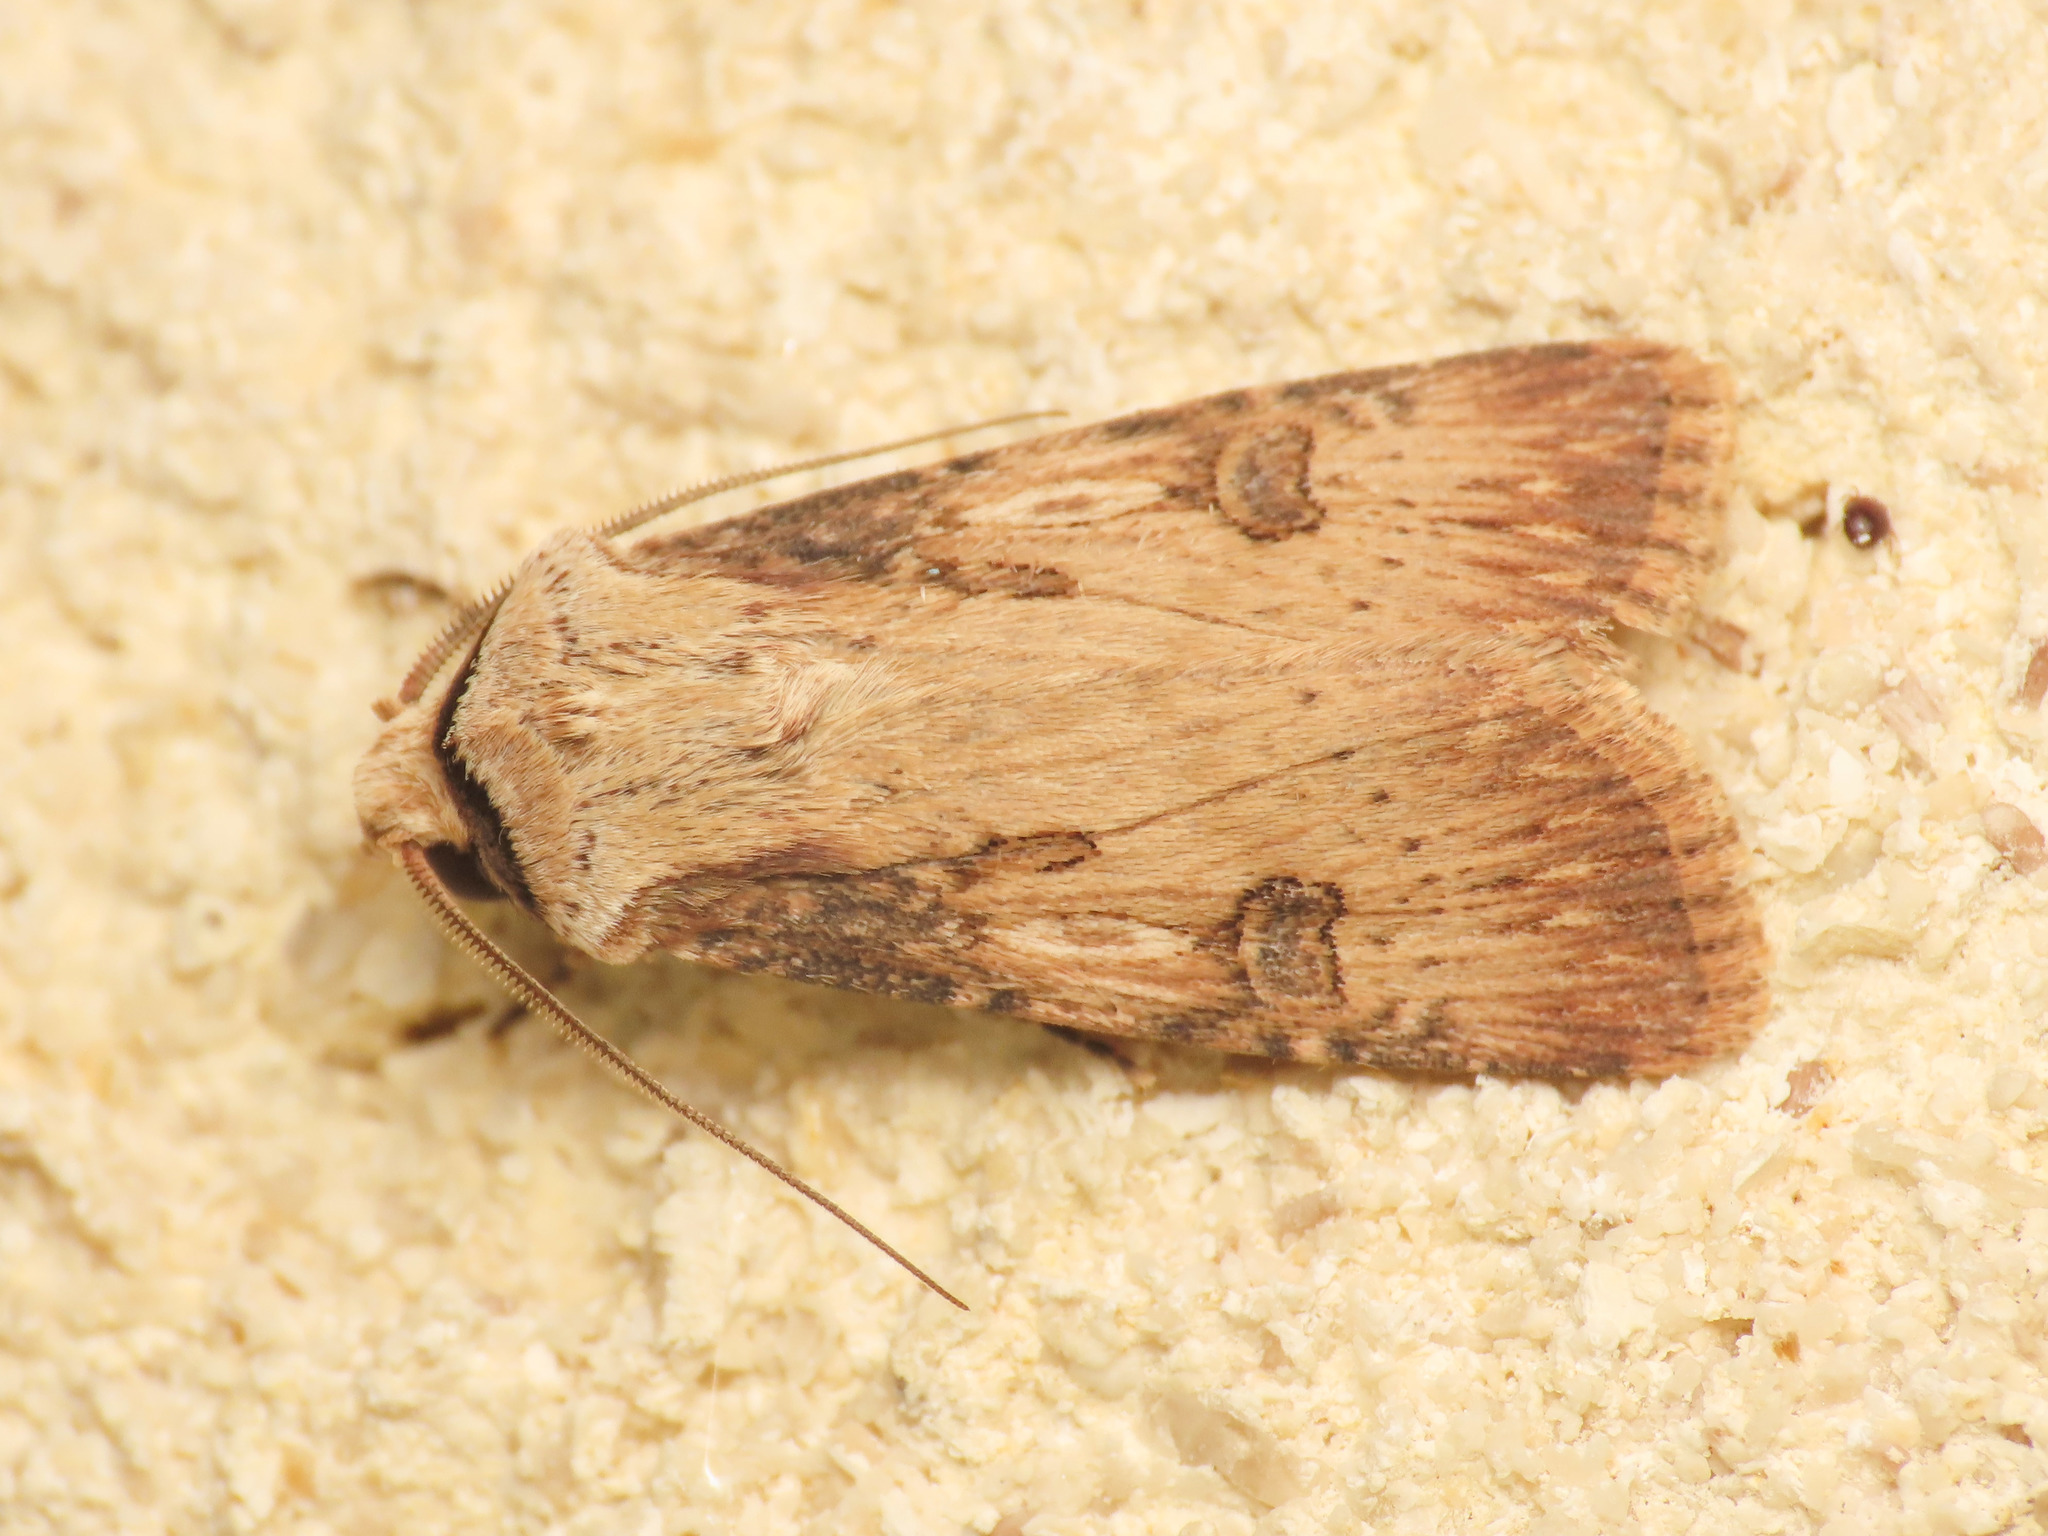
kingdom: Animalia
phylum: Arthropoda
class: Insecta
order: Lepidoptera
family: Noctuidae
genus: Agrotis
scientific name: Agrotis puta
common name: Shuttle-shaped dart
